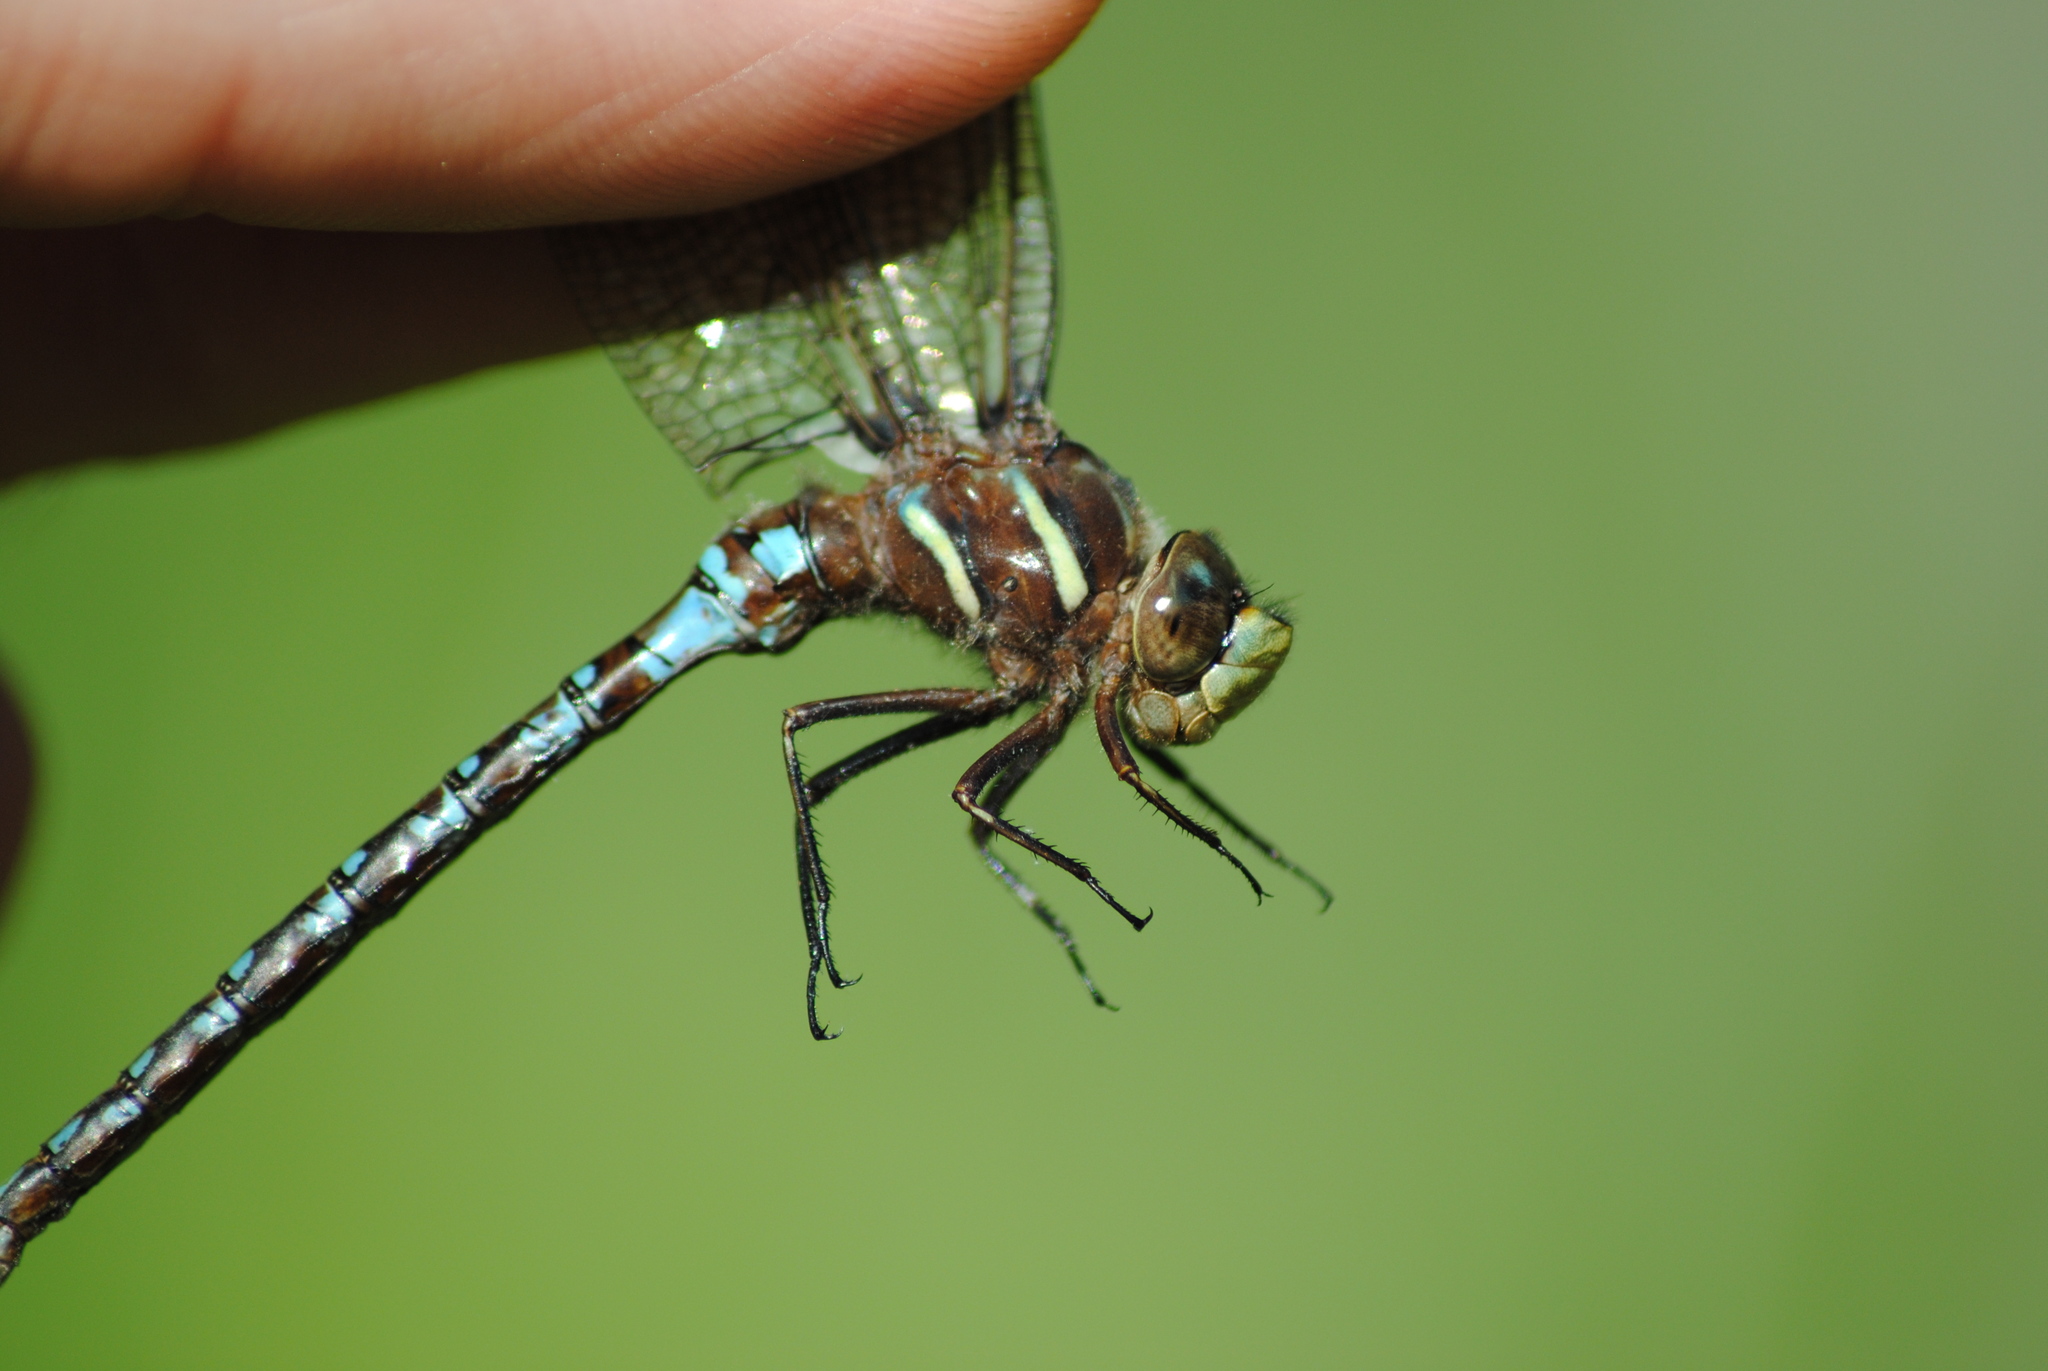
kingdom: Animalia
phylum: Arthropoda
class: Insecta
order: Odonata
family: Aeshnidae
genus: Basiaeschna
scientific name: Basiaeschna janata
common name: Springtime darner
